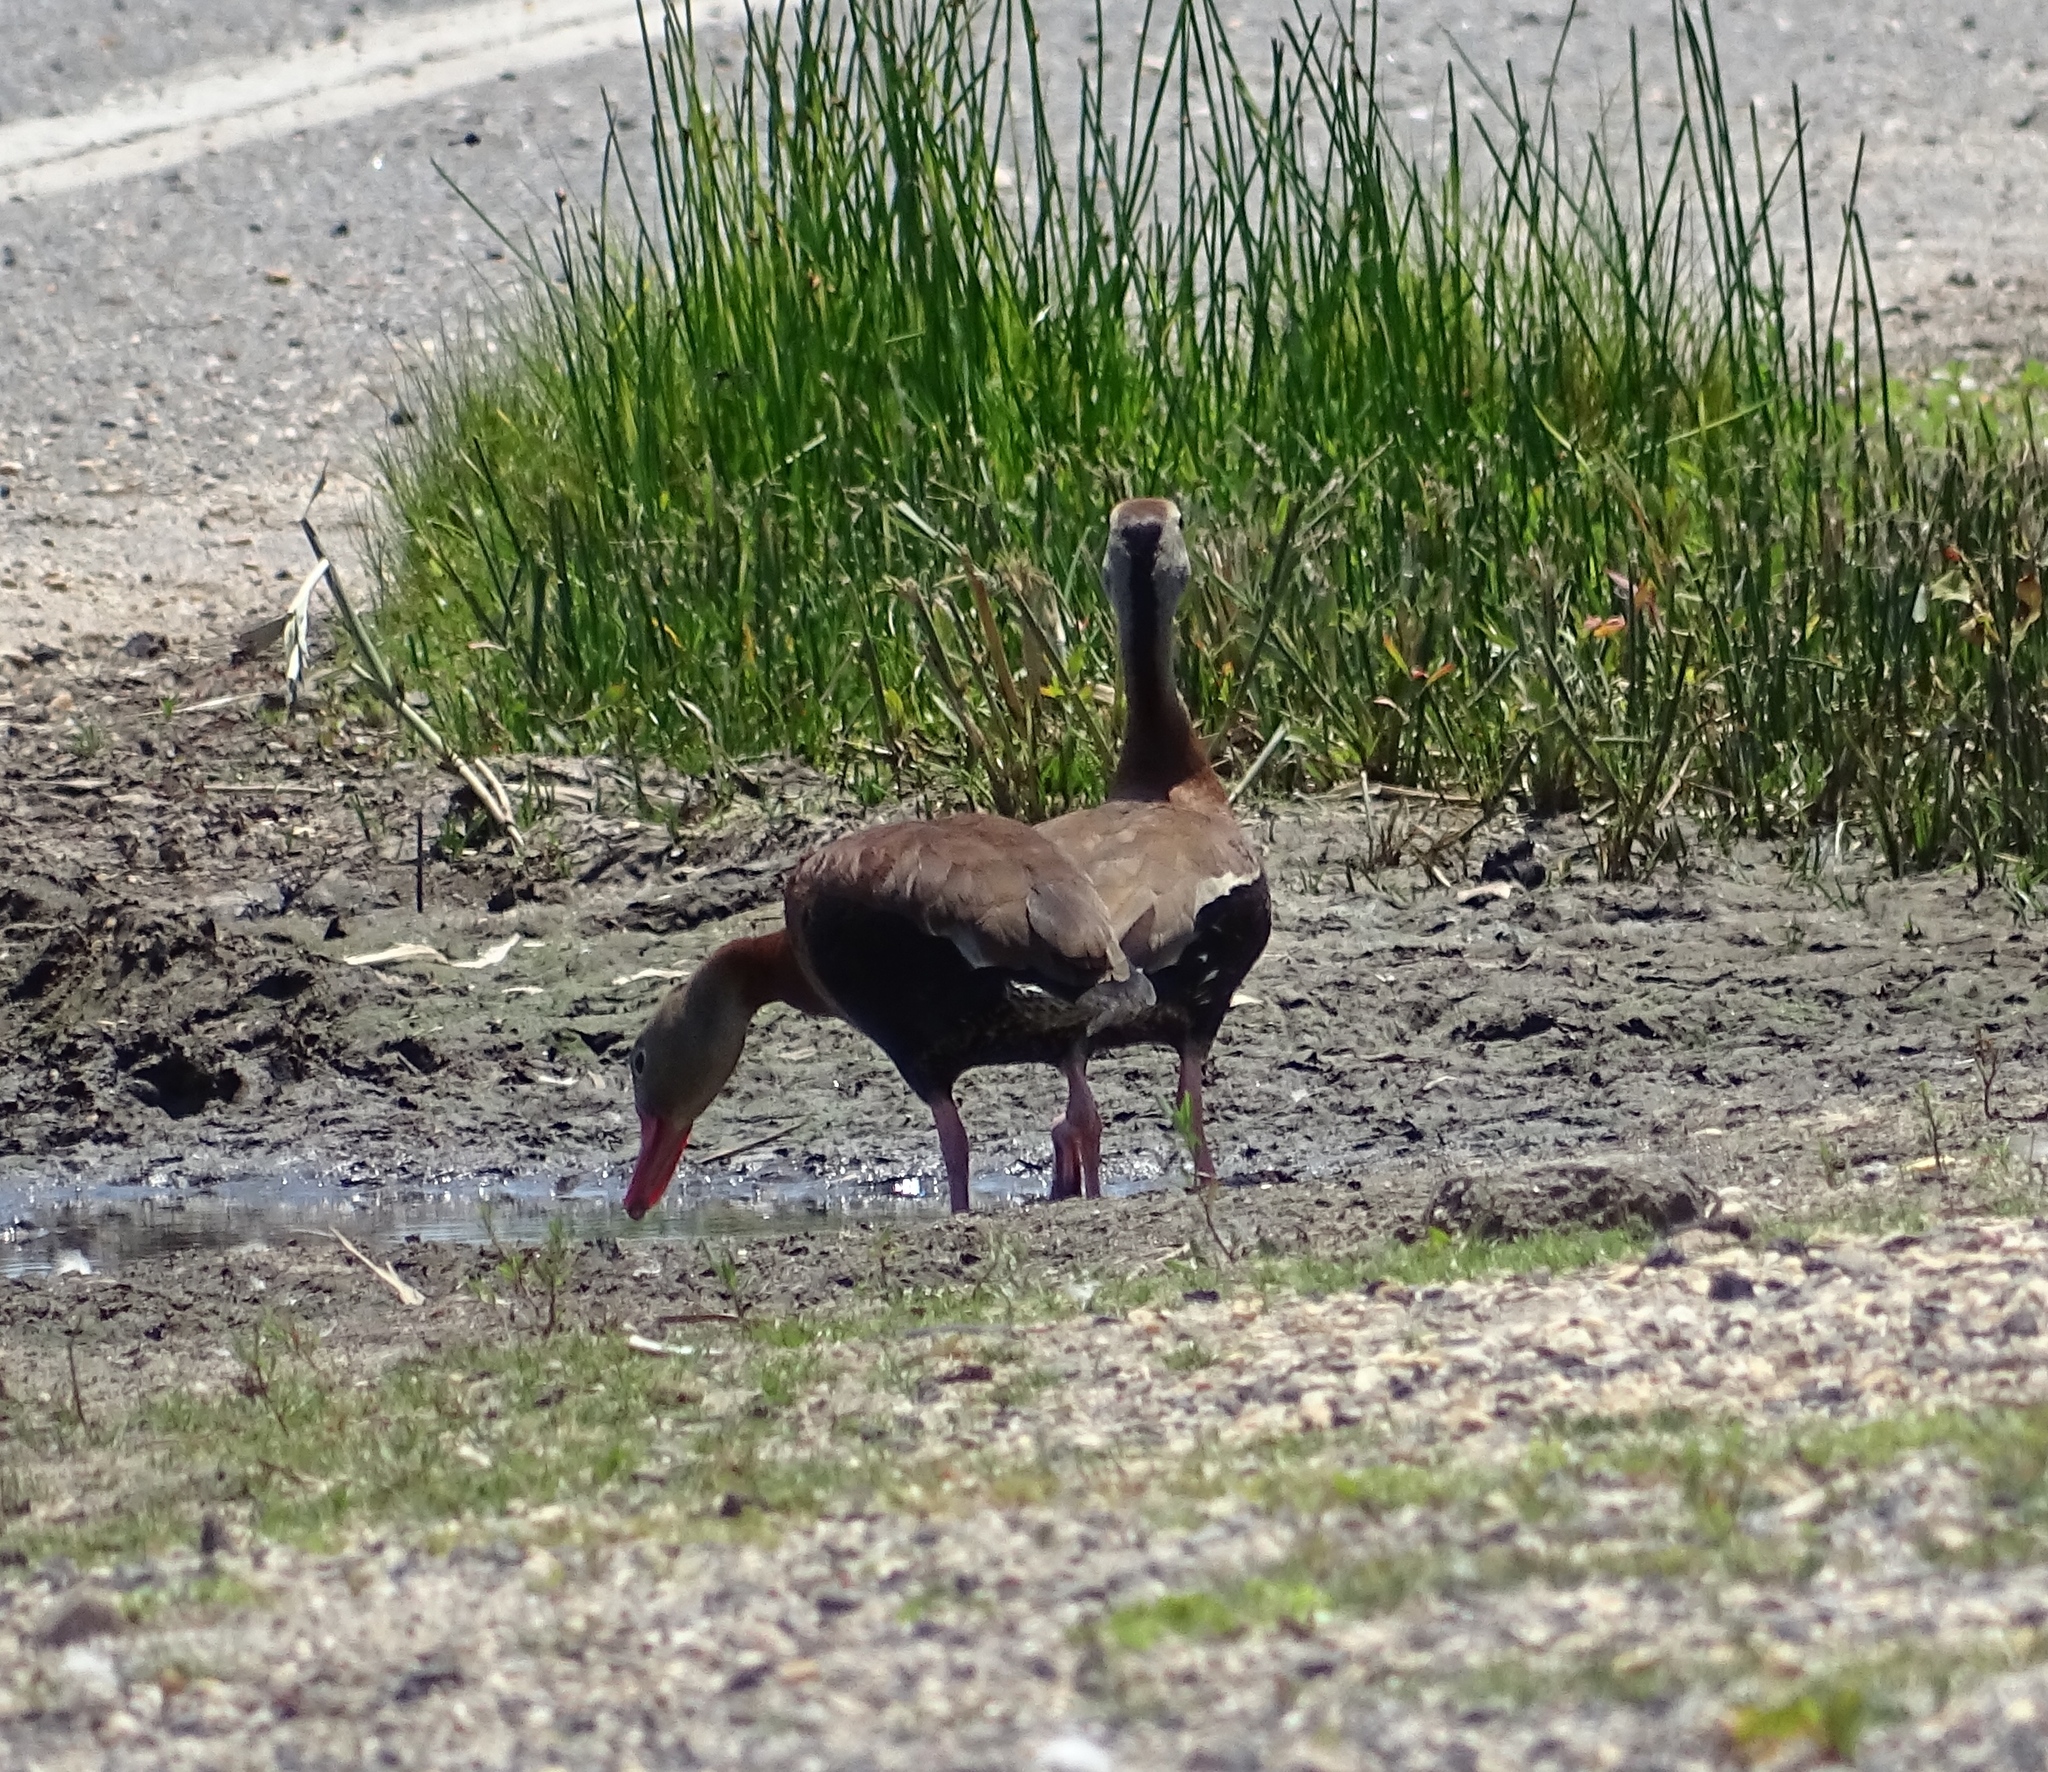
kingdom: Animalia
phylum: Chordata
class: Aves
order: Anseriformes
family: Anatidae
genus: Dendrocygna
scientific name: Dendrocygna autumnalis
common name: Black-bellied whistling duck
